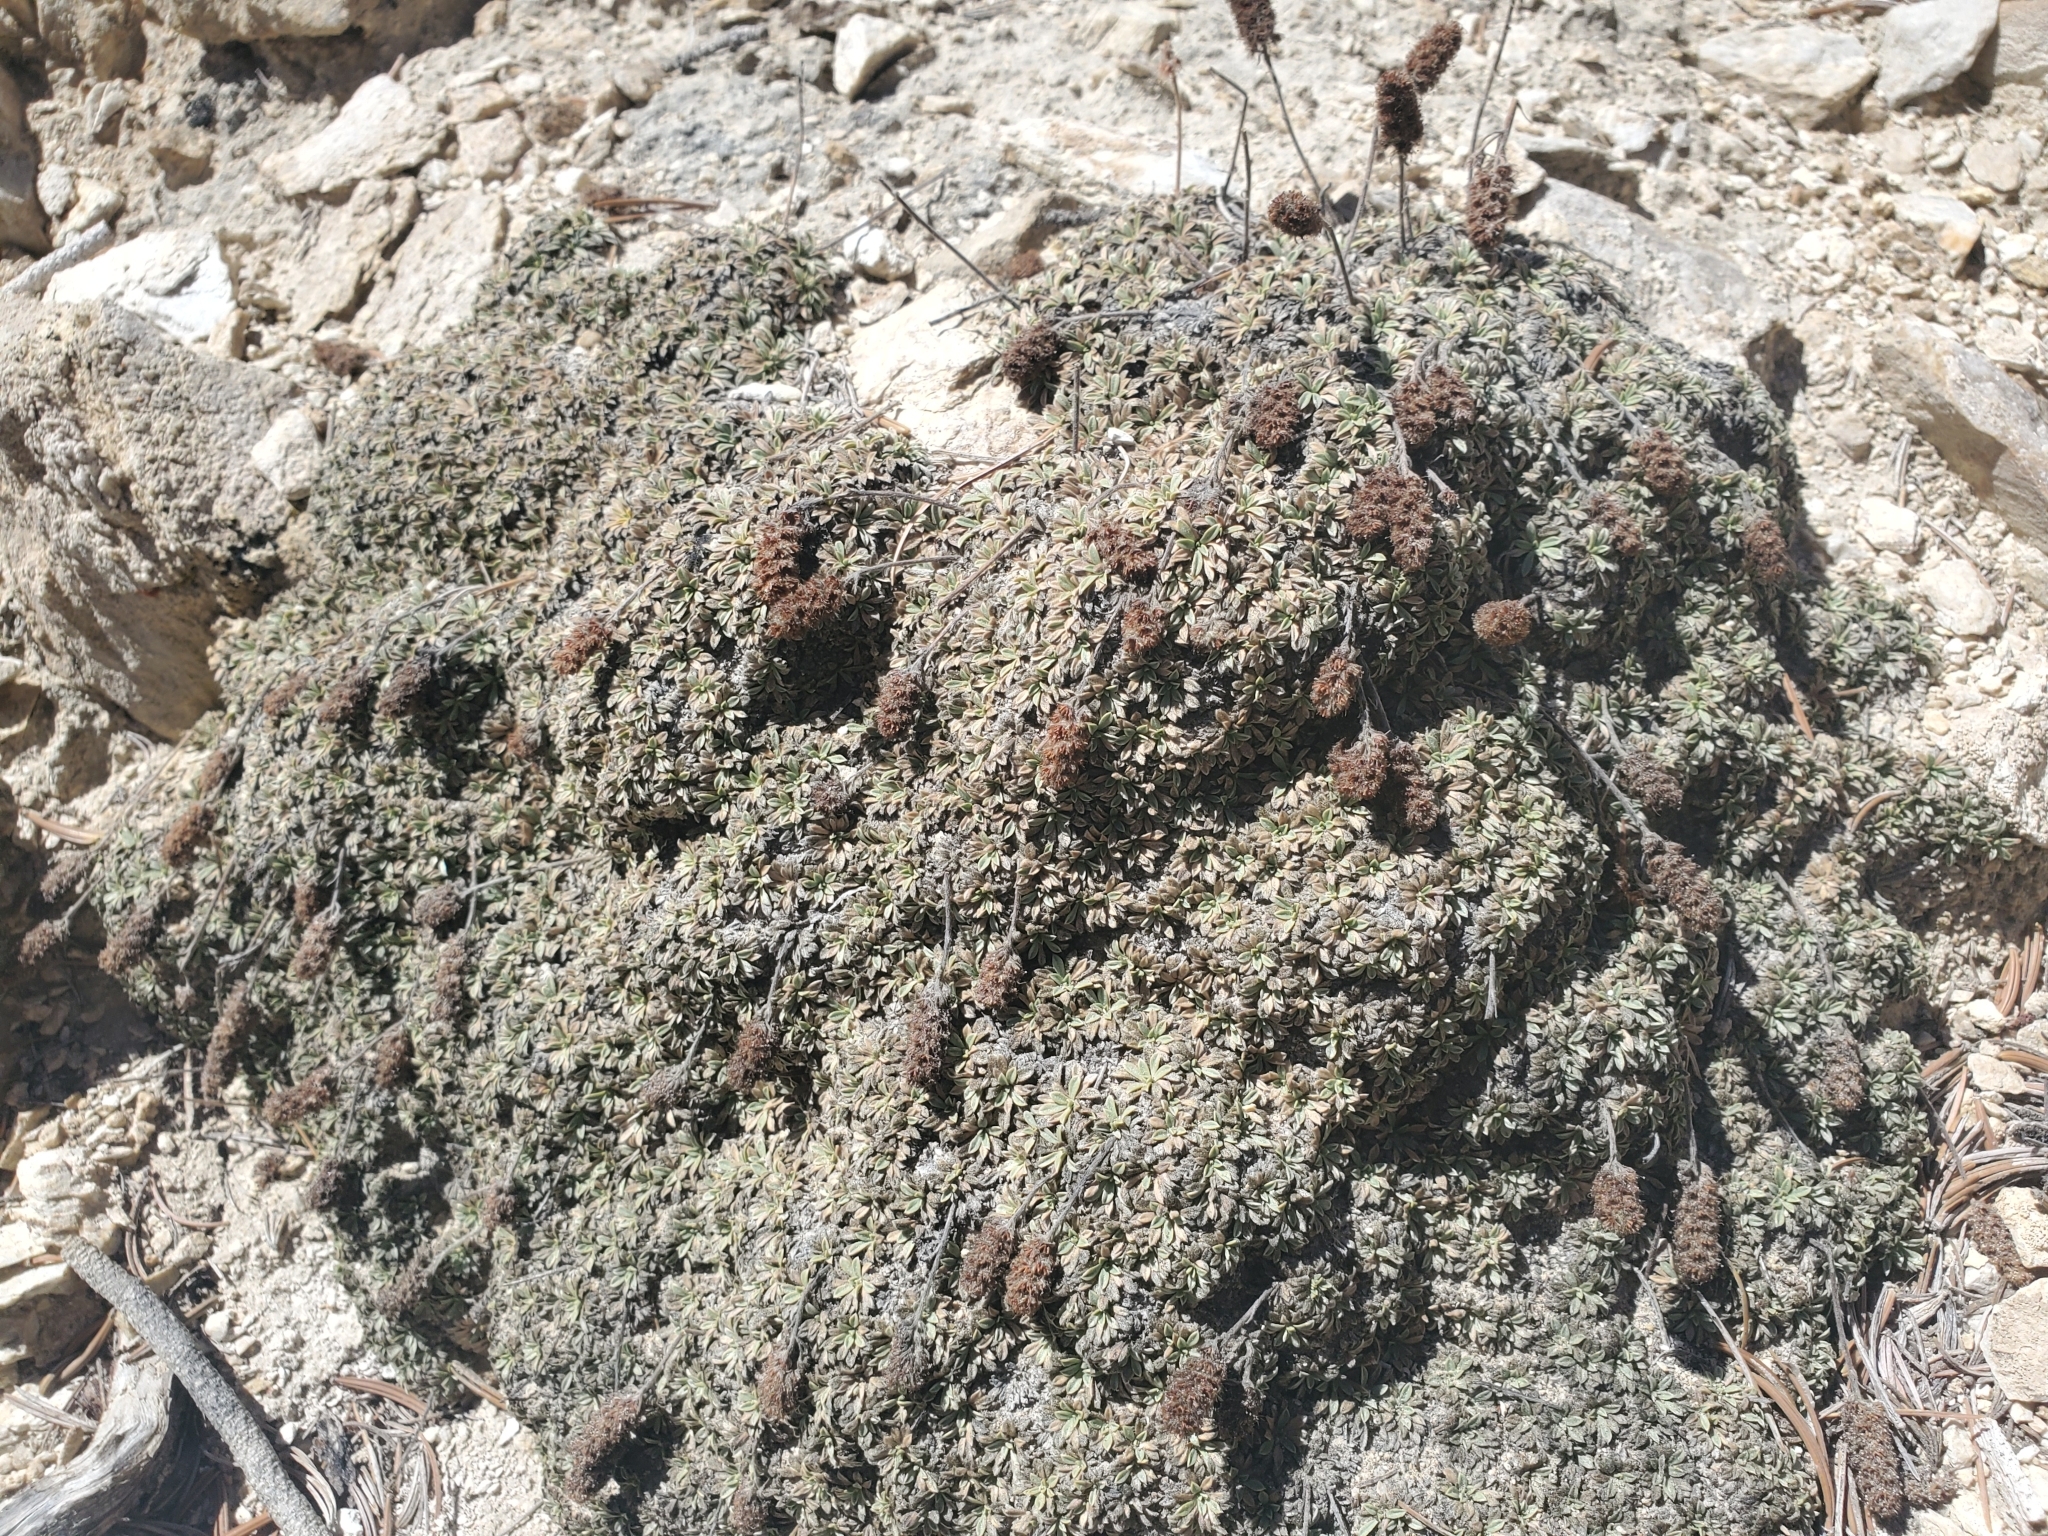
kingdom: Plantae
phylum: Tracheophyta
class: Magnoliopsida
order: Rosales
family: Rosaceae
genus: Petrophytum
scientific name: Petrophytum caespitosum
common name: Mat rockspirea
